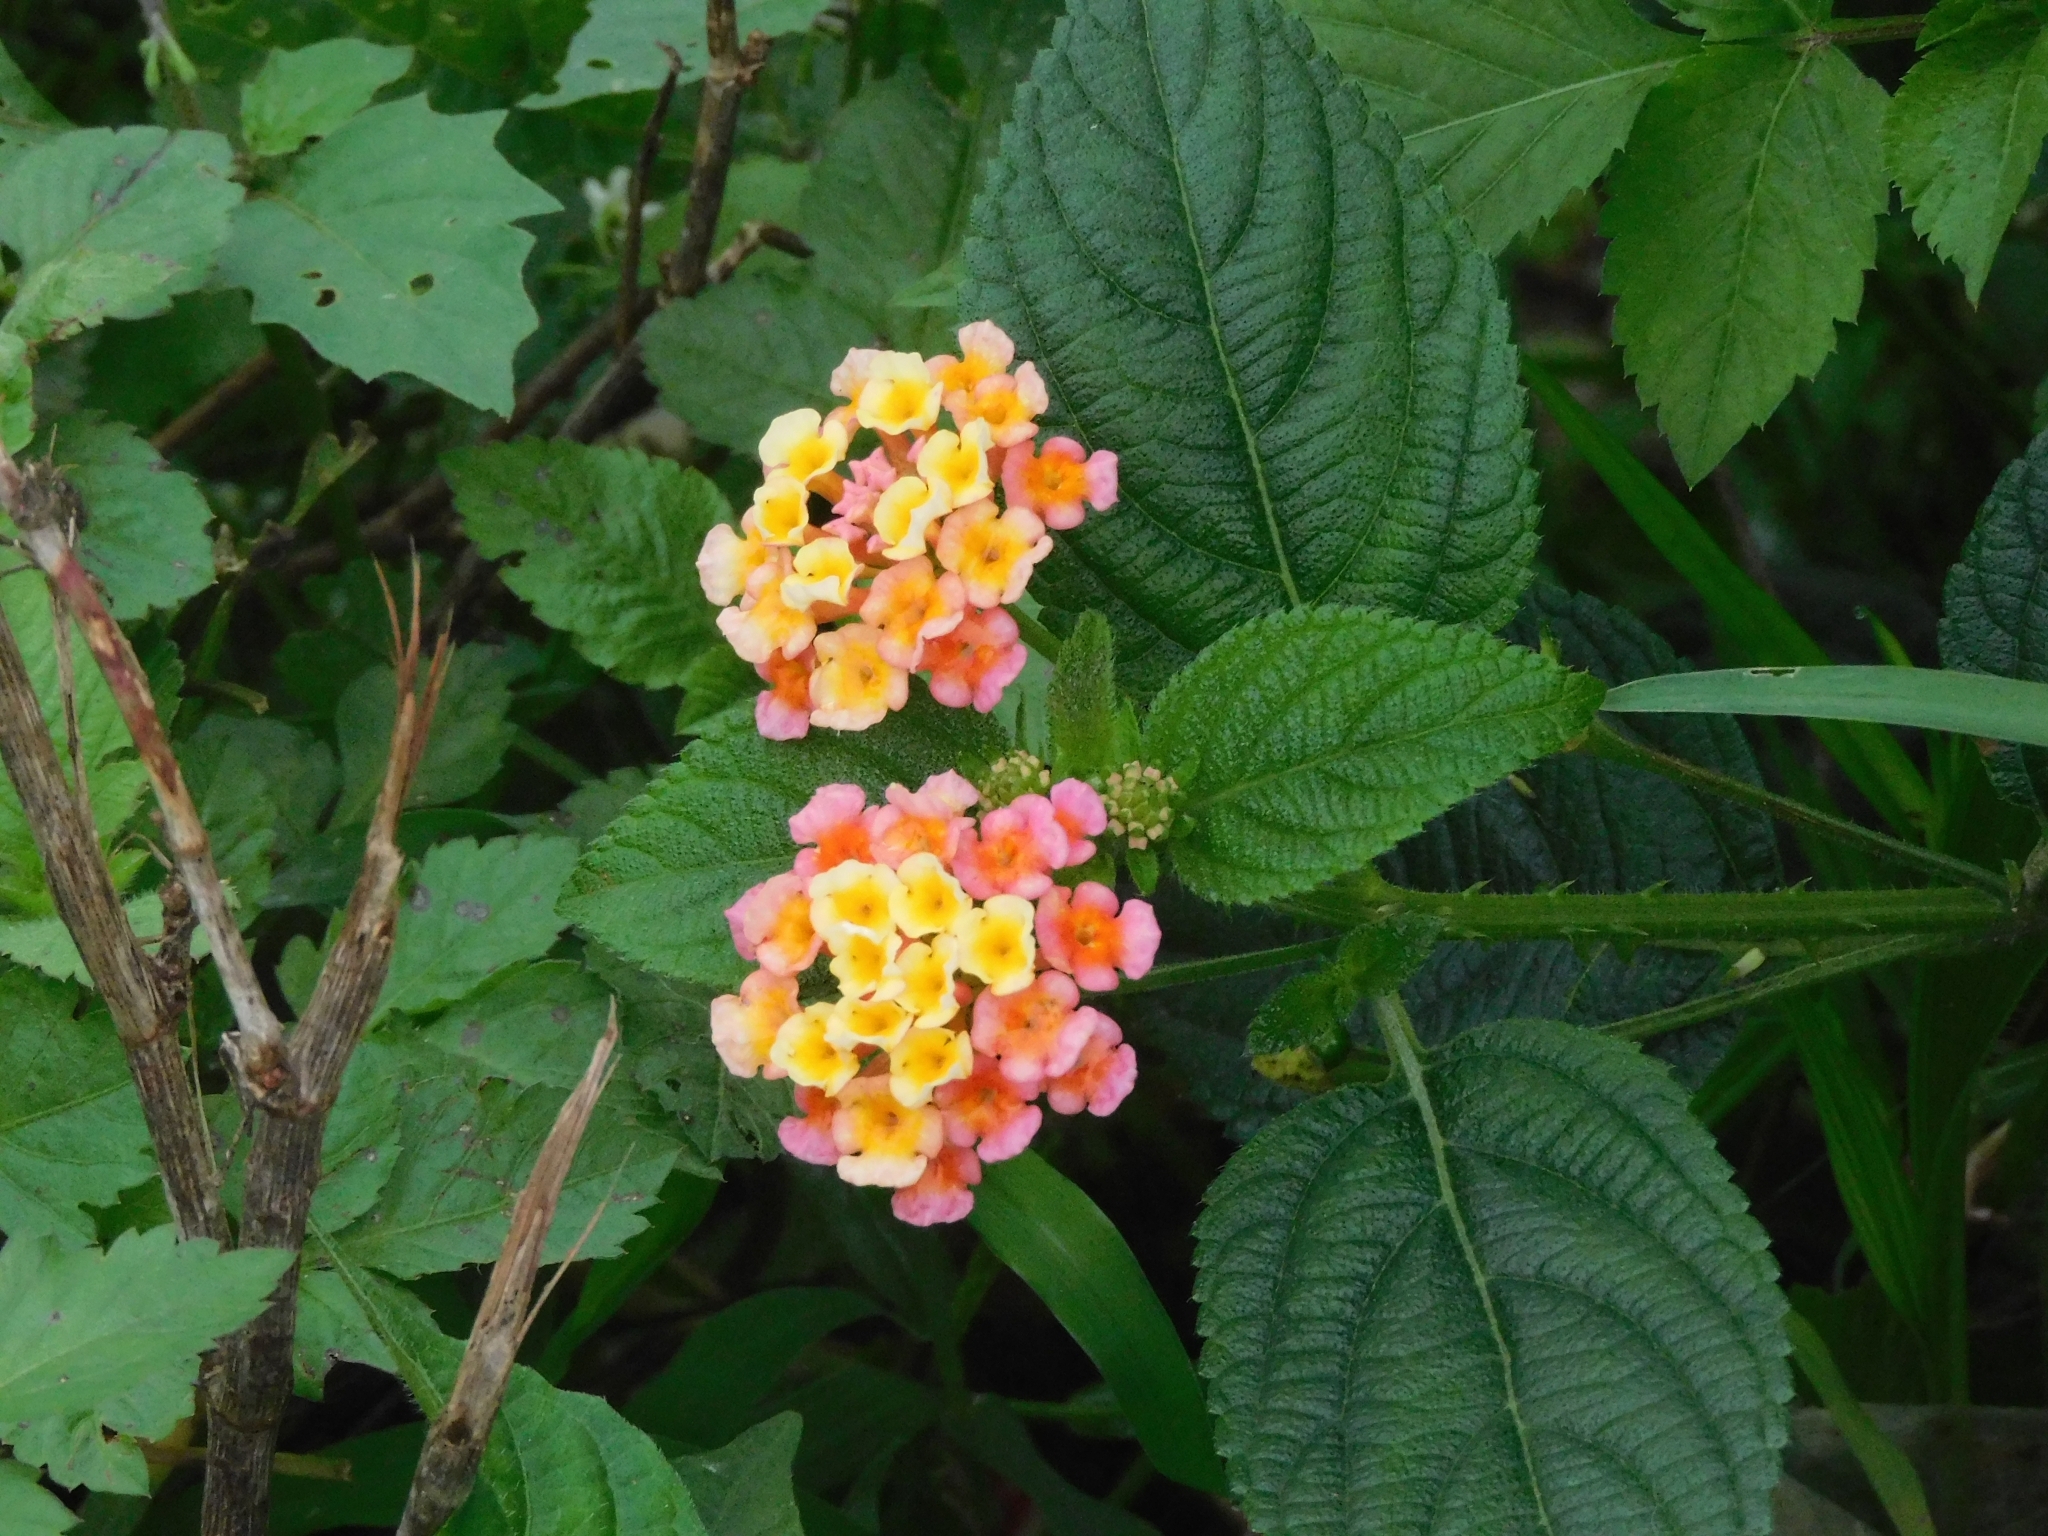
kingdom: Plantae
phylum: Tracheophyta
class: Magnoliopsida
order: Lamiales
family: Verbenaceae
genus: Lantana
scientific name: Lantana camara
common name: Lantana
